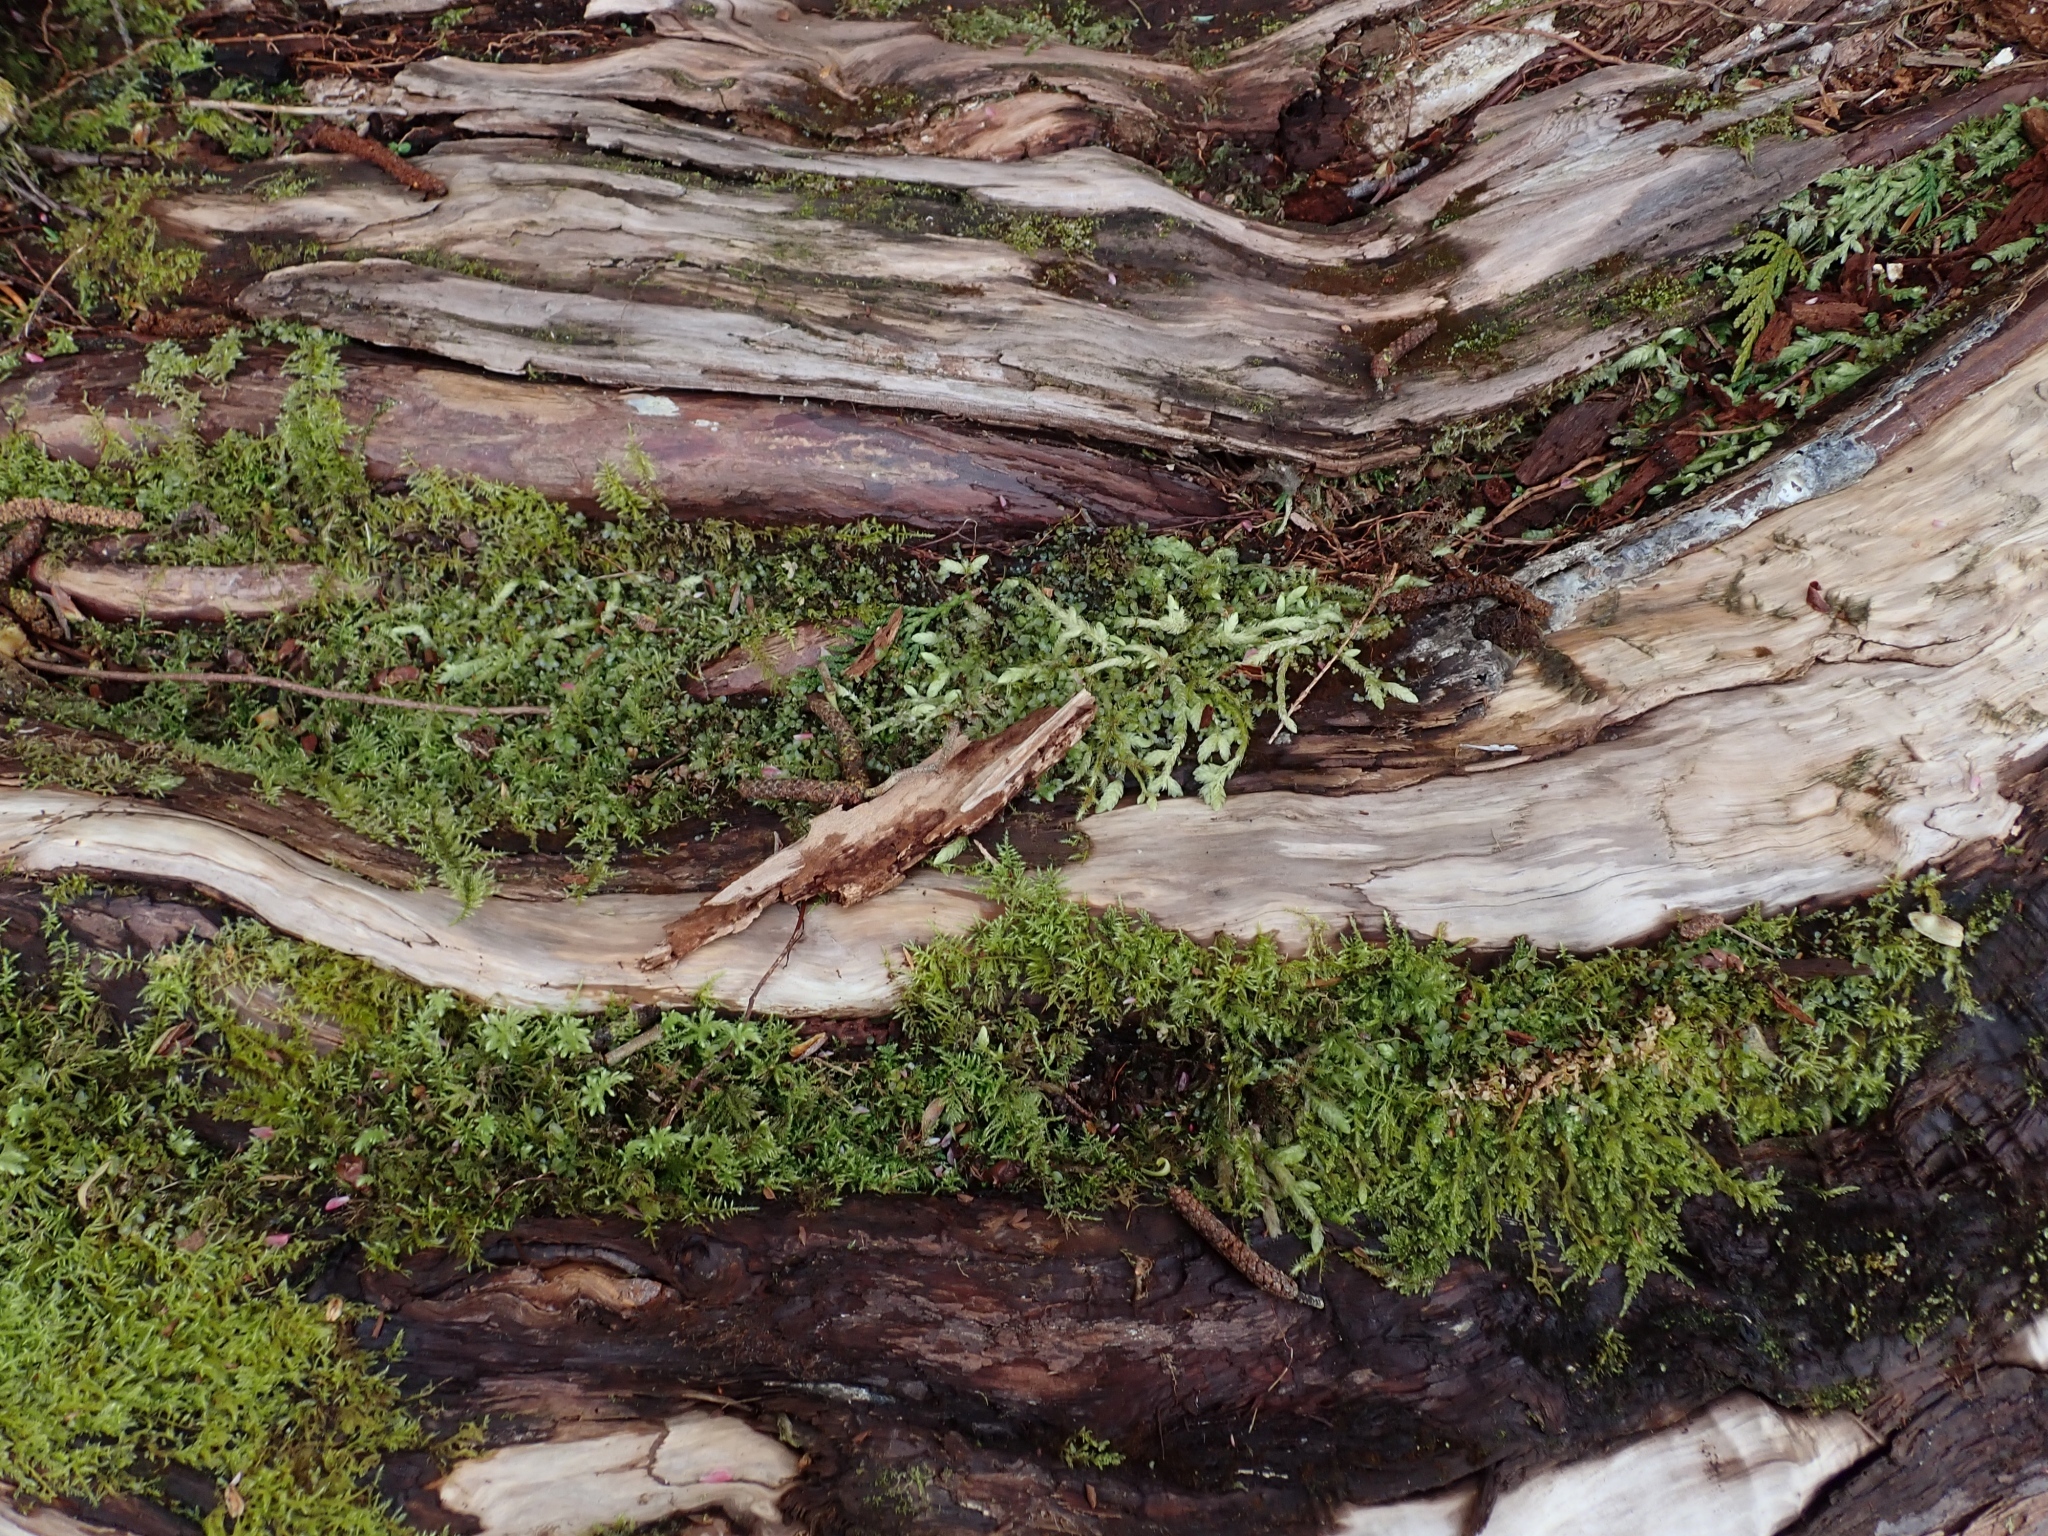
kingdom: Plantae
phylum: Bryophyta
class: Bryopsida
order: Hypnales
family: Plagiotheciaceae
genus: Plagiothecium
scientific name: Plagiothecium undulatum
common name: Waved silk-moss
